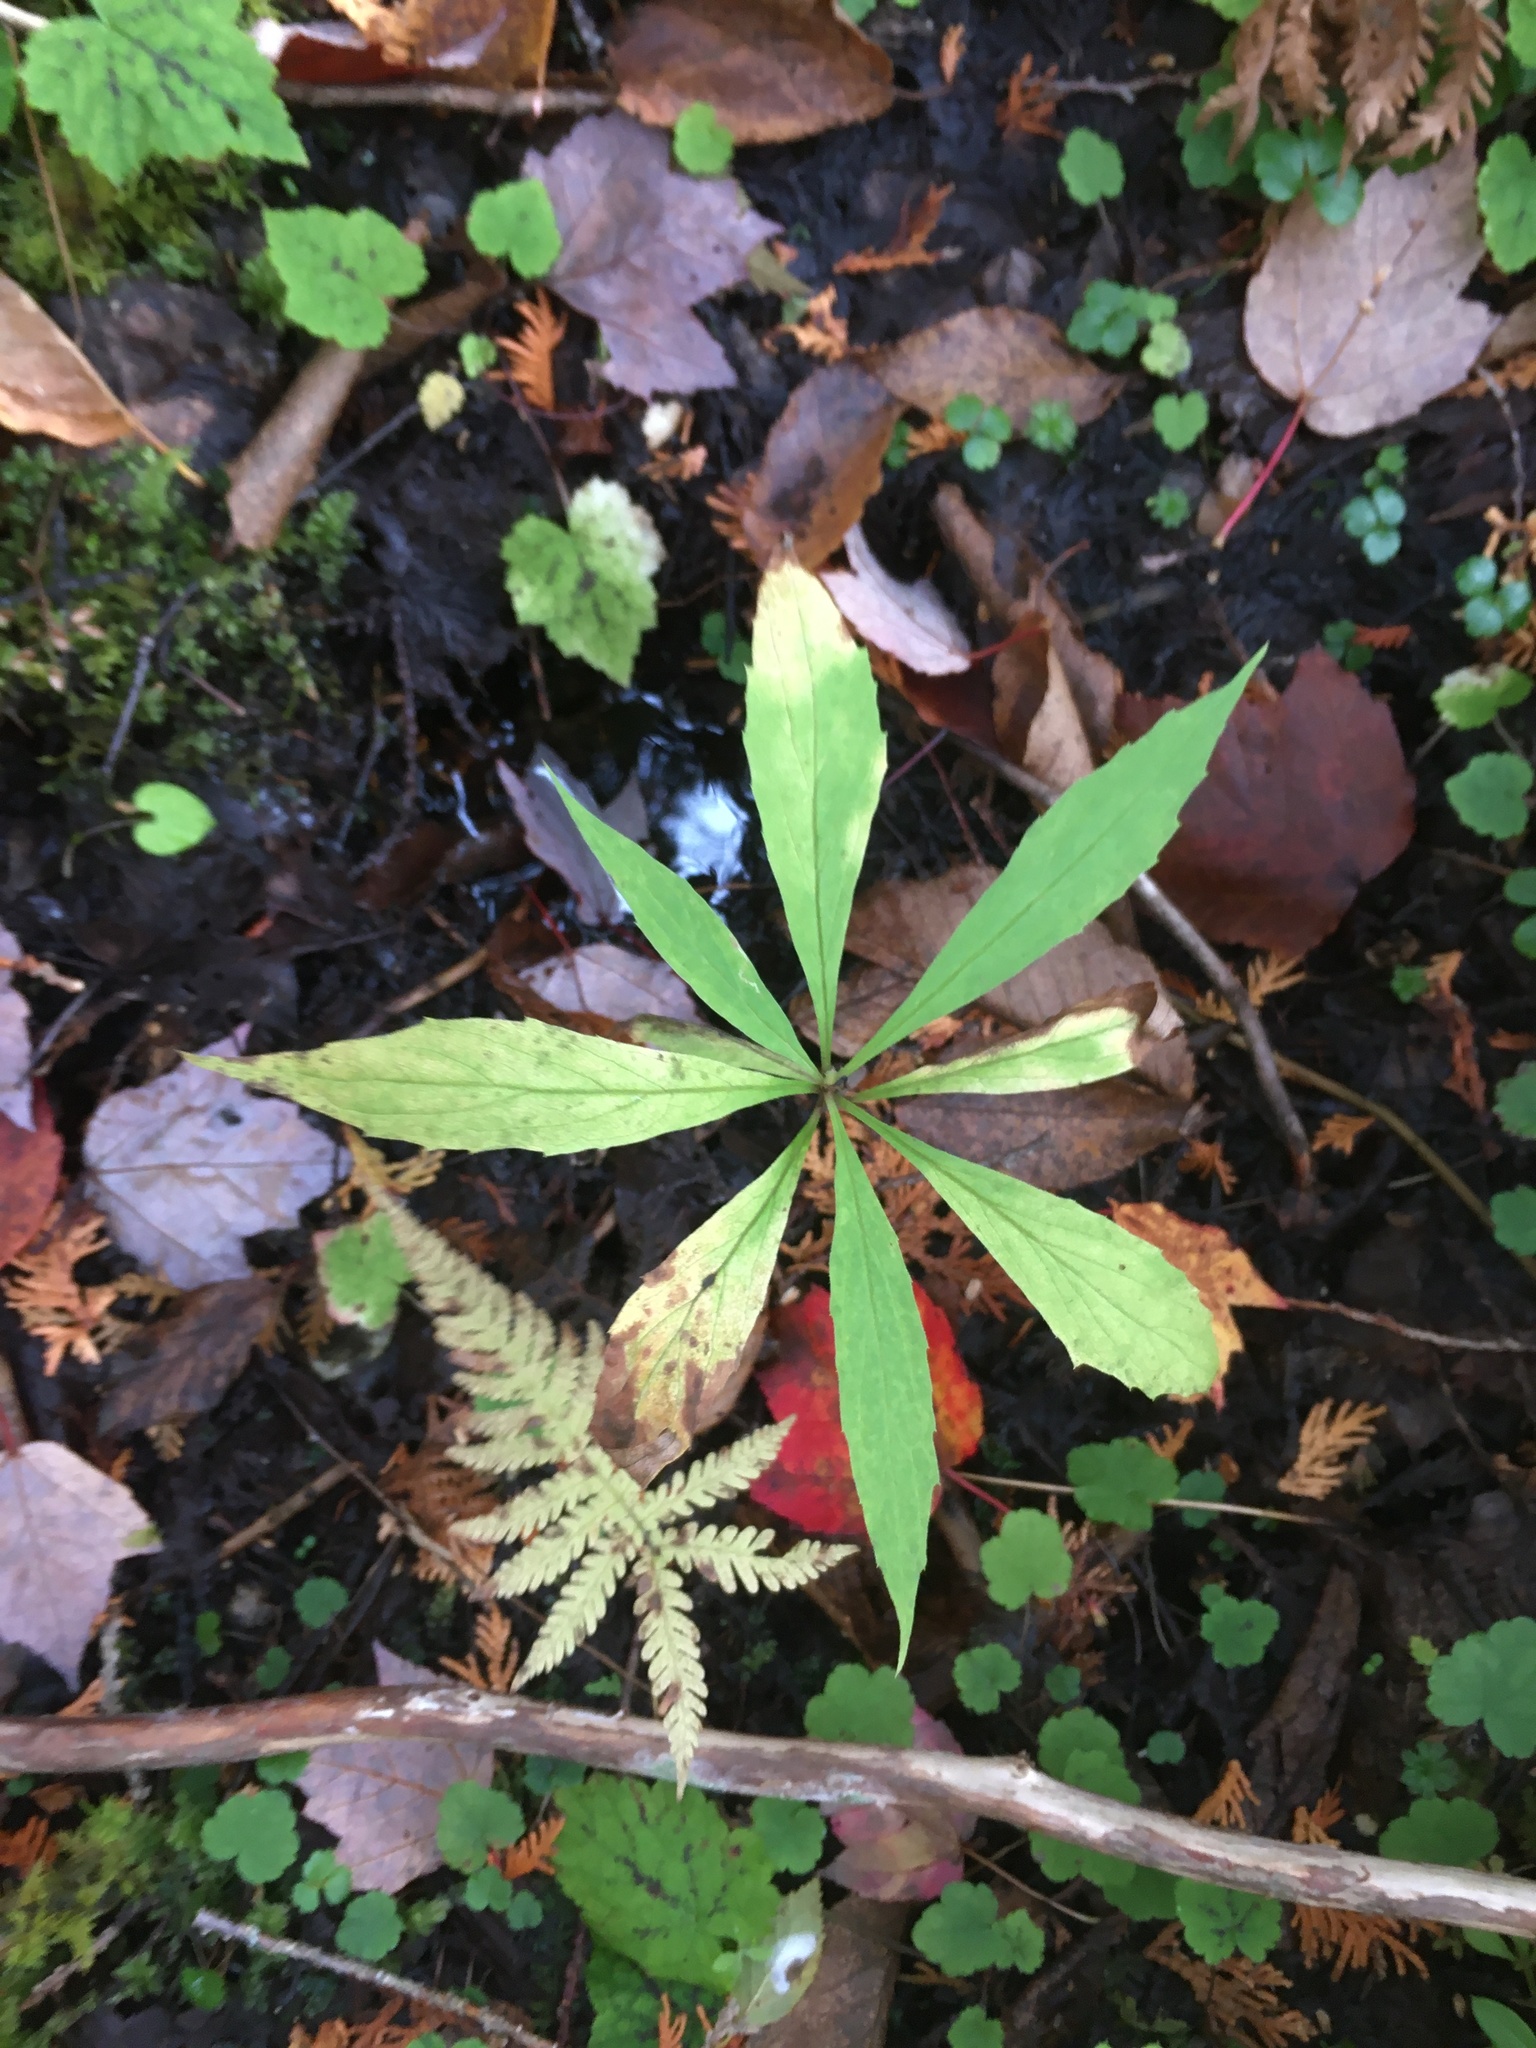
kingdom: Plantae
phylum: Tracheophyta
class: Magnoliopsida
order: Asterales
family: Asteraceae
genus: Oclemena
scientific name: Oclemena acuminata
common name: Mountain aster
